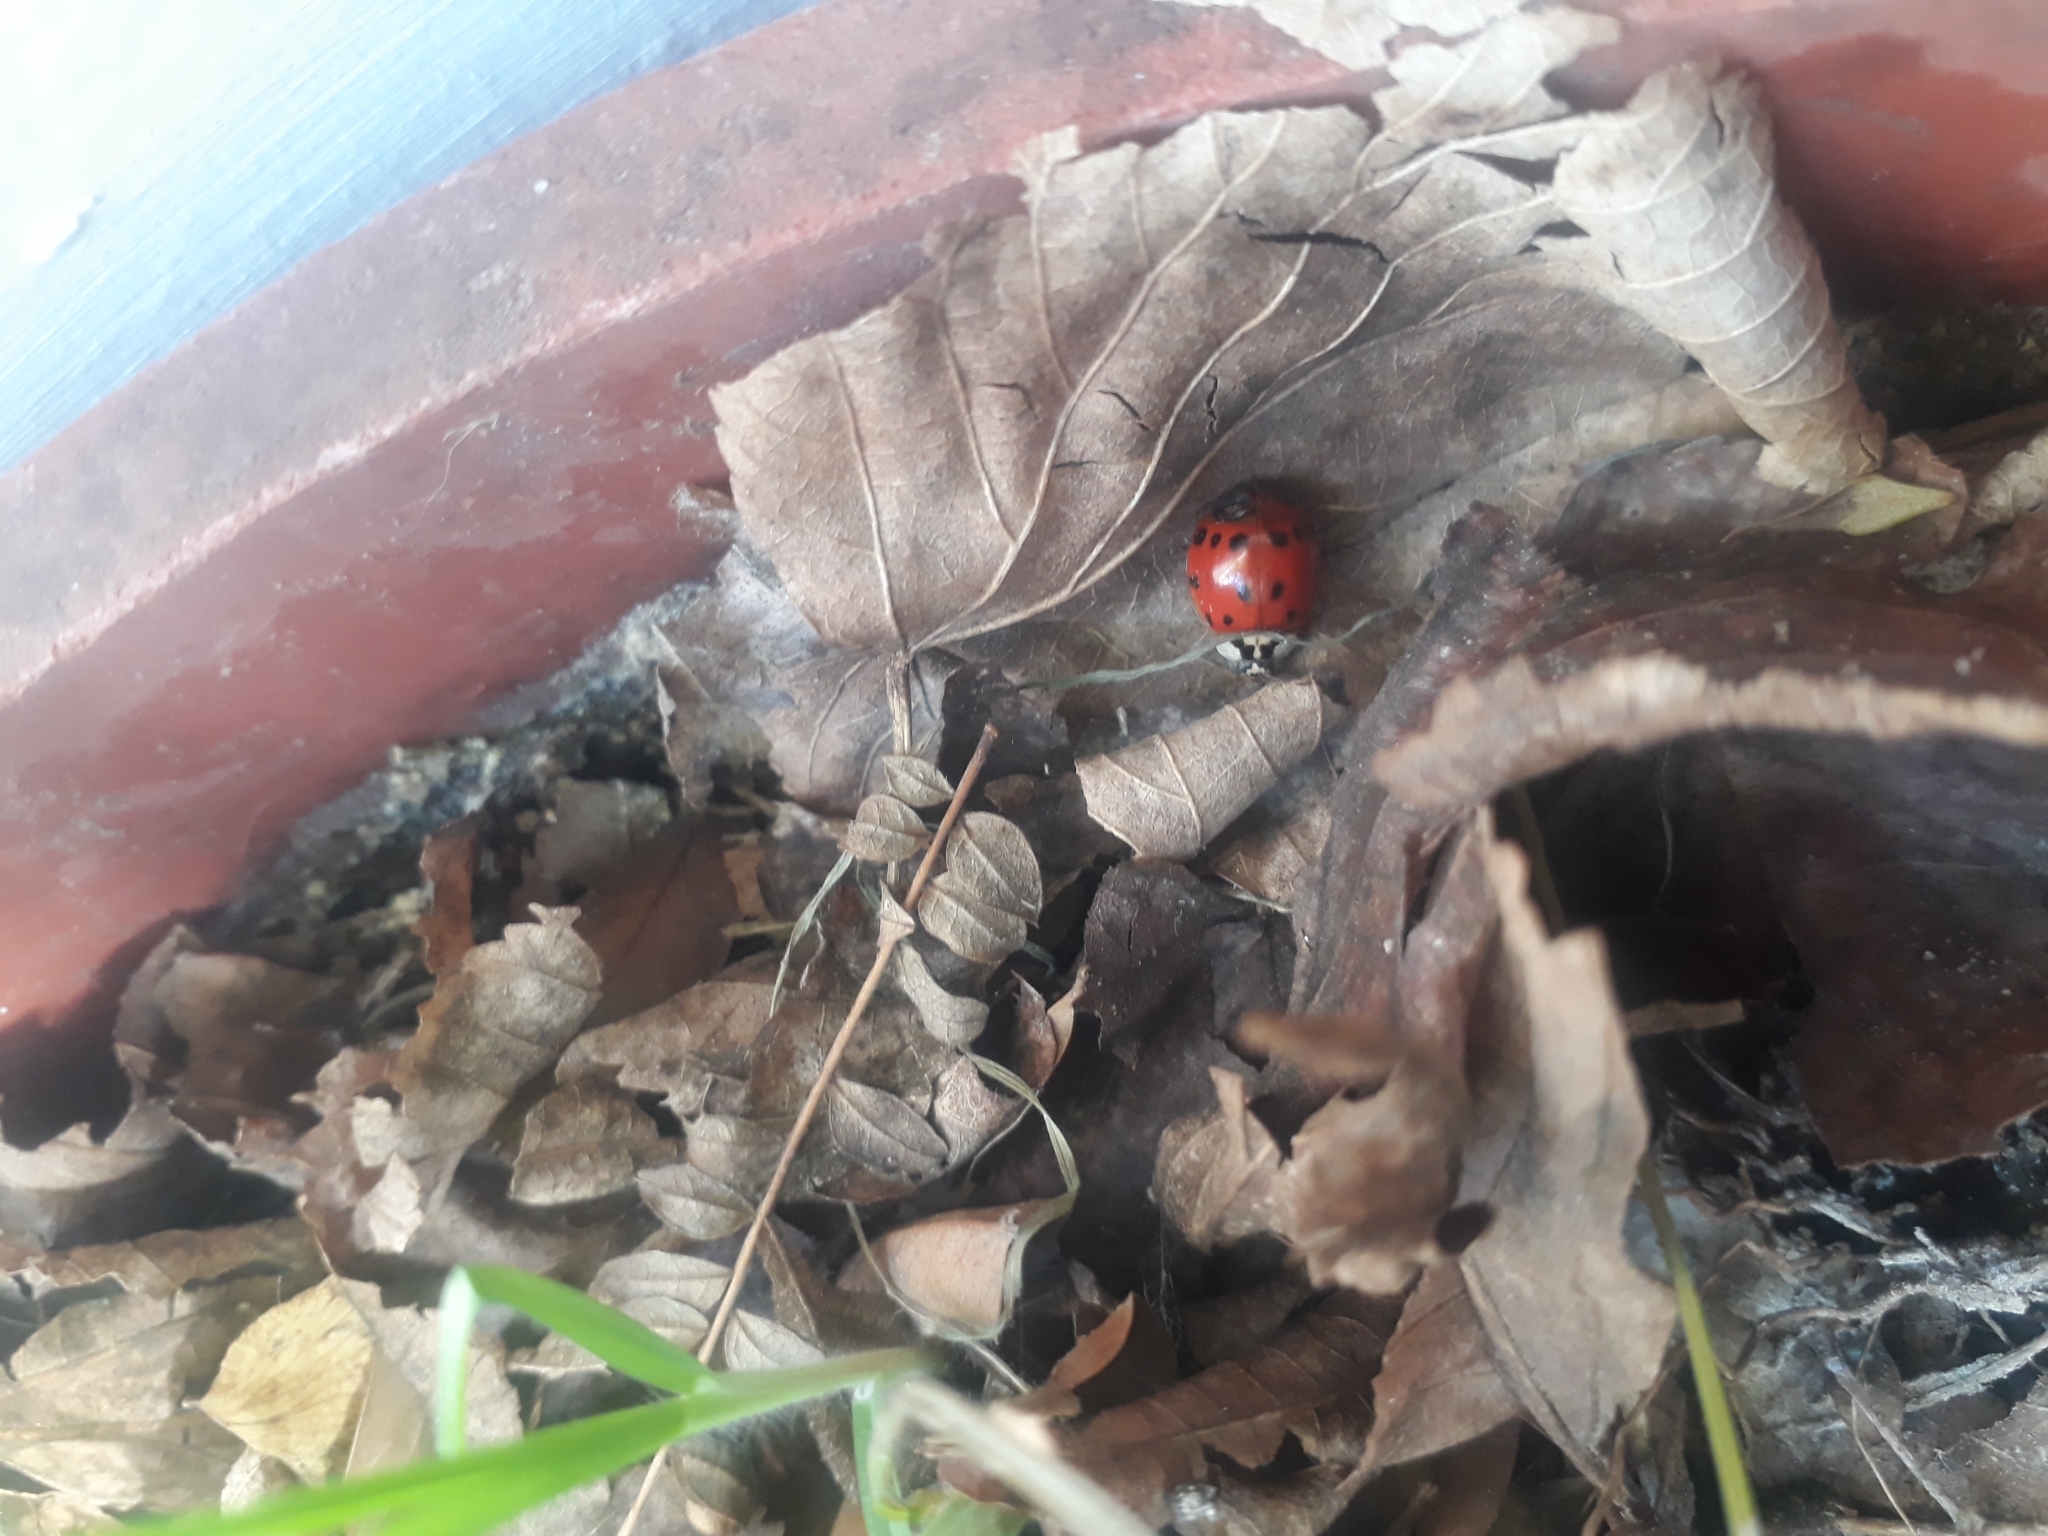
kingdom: Animalia
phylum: Arthropoda
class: Insecta
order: Coleoptera
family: Coccinellidae
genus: Harmonia
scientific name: Harmonia axyridis
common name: Harlequin ladybird
